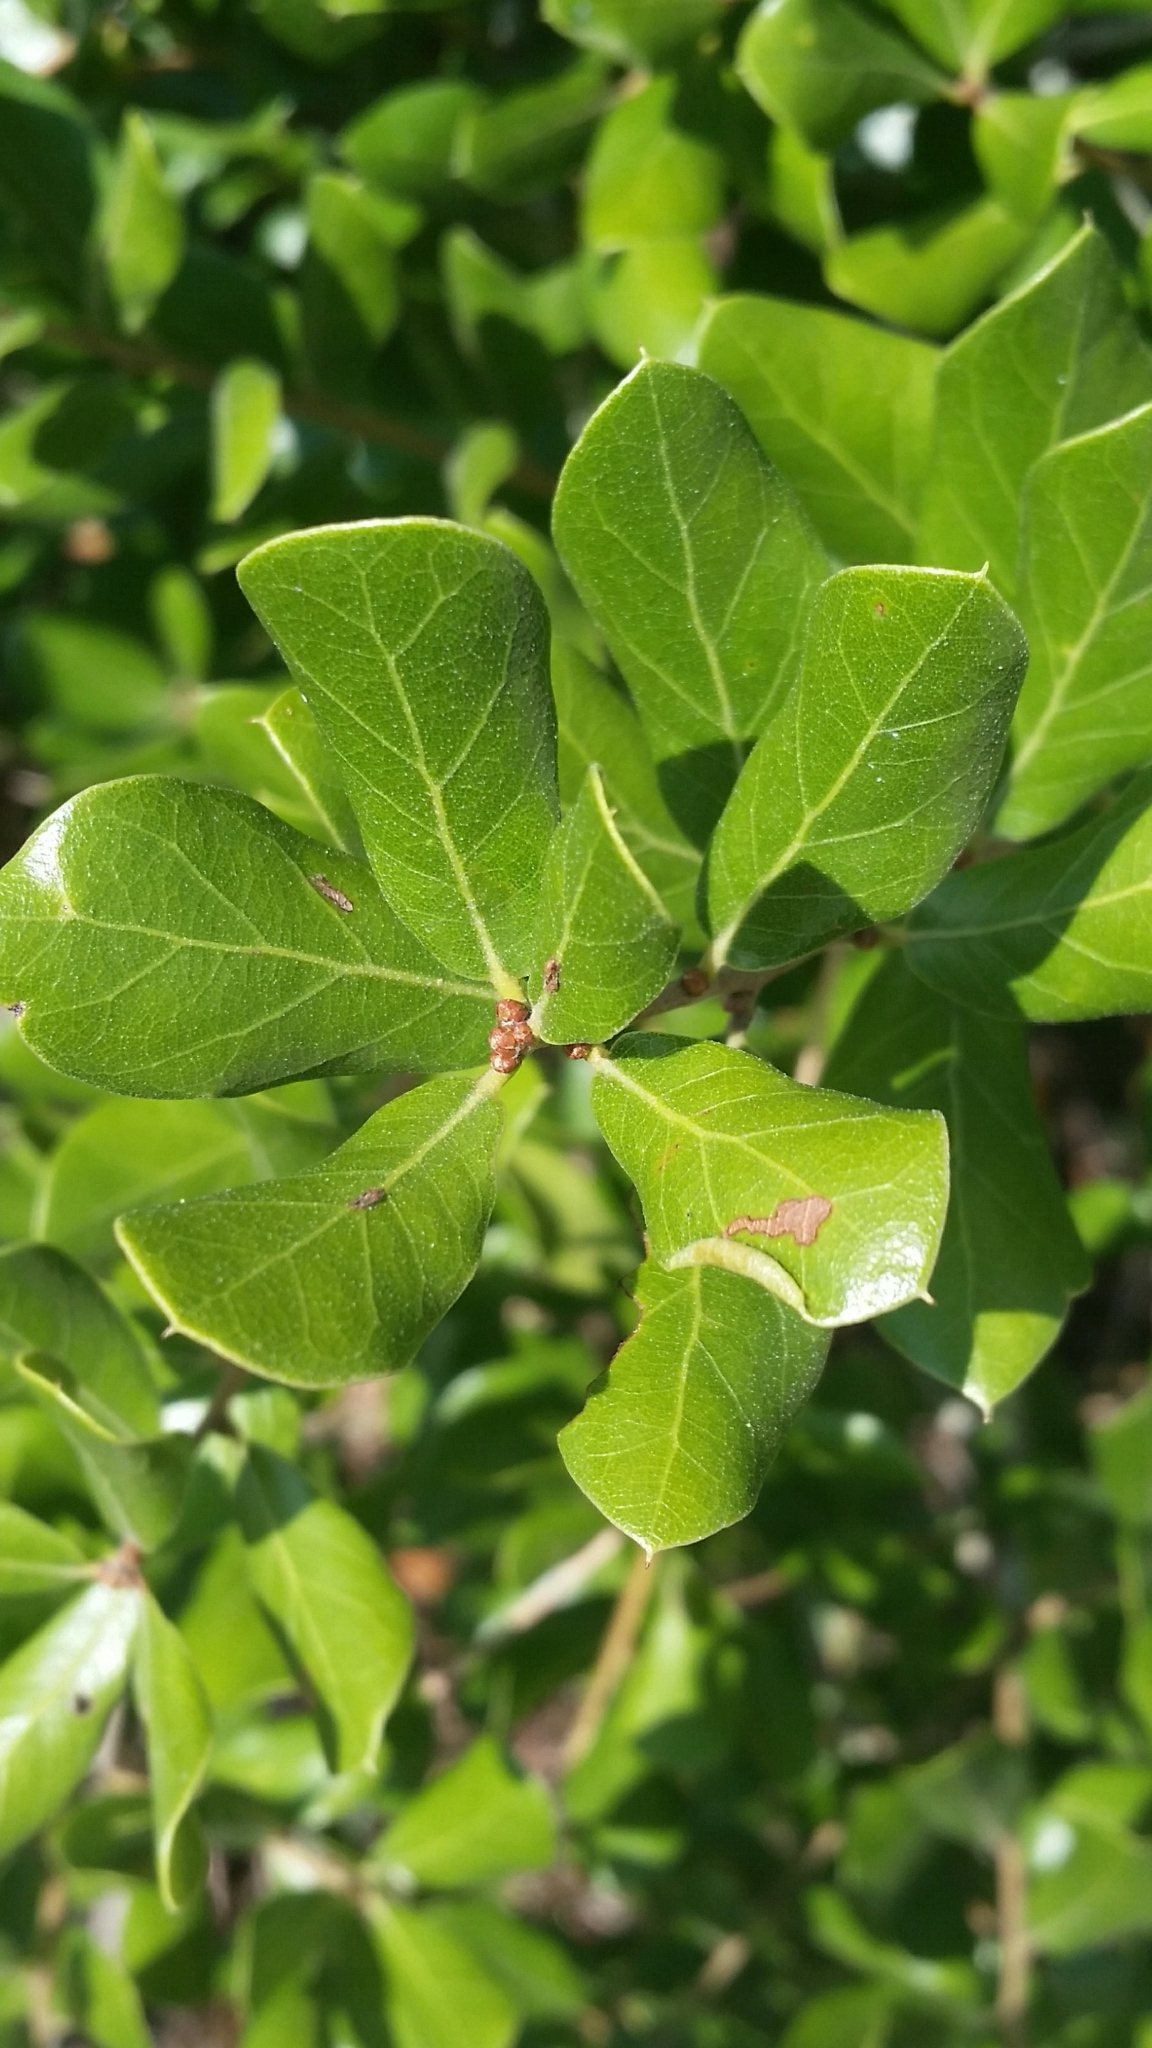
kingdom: Plantae
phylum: Tracheophyta
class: Magnoliopsida
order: Fagales
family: Fagaceae
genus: Quercus
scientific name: Quercus myrtifolia
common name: Myrtle oak
